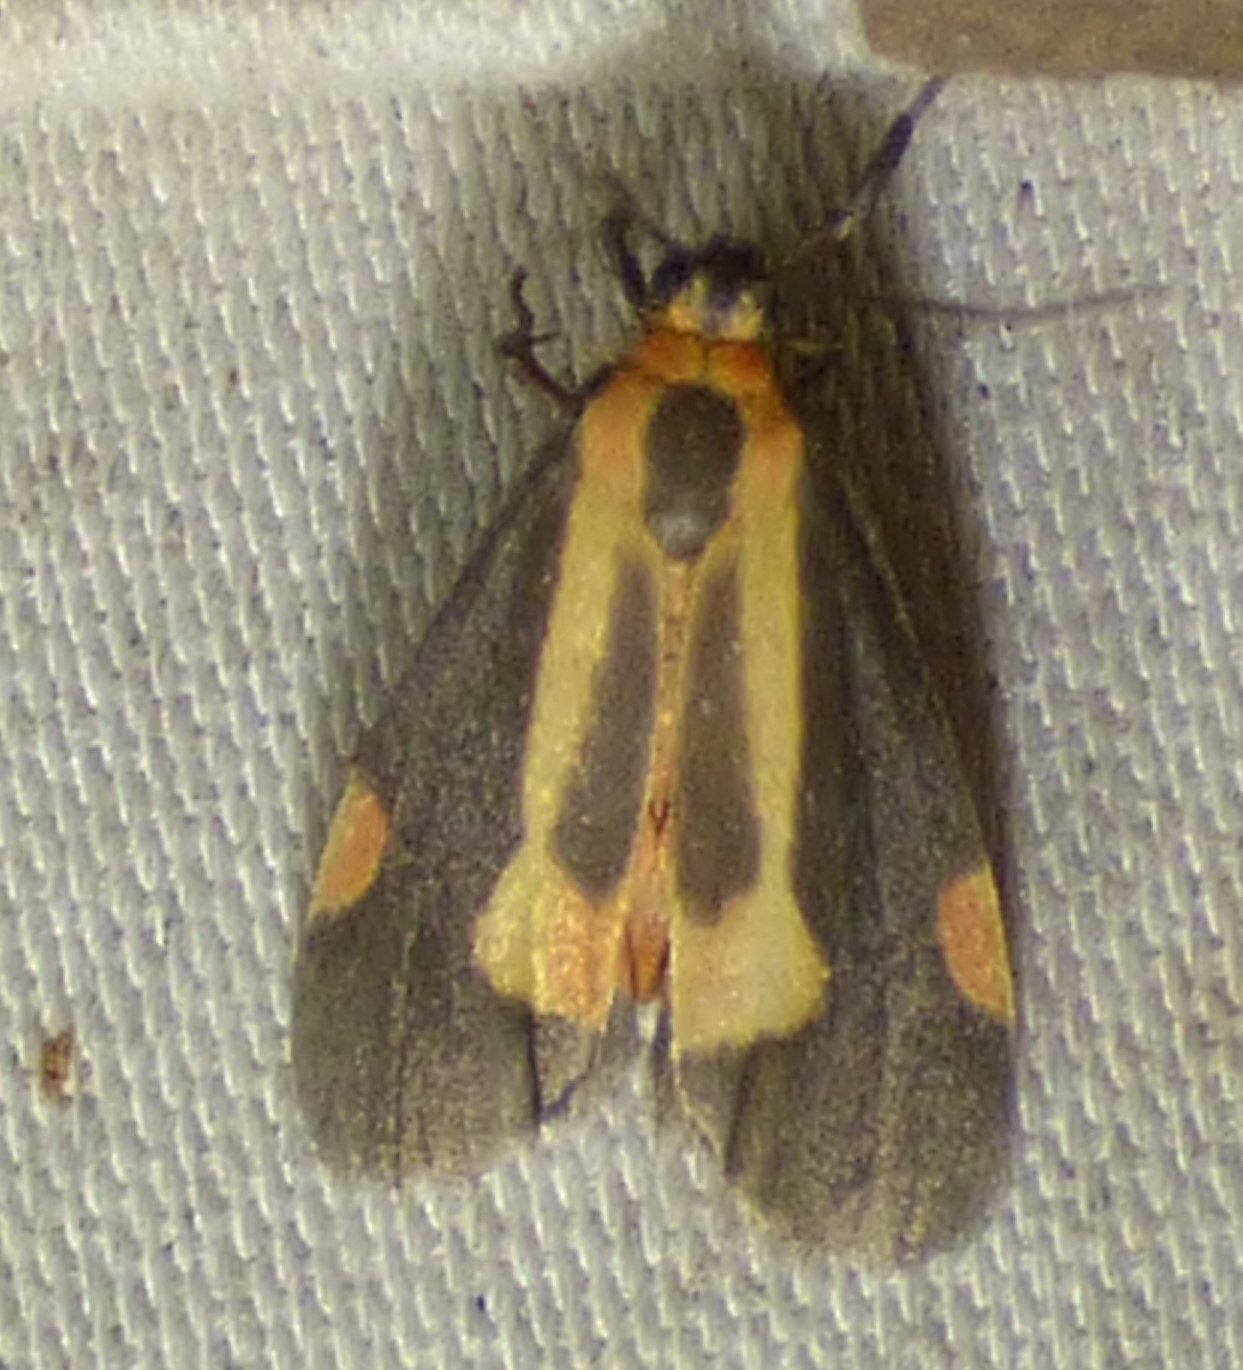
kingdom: Animalia
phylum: Arthropoda
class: Insecta
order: Lepidoptera
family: Erebidae
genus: Cisthene
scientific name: Cisthene packardii
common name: Packard's lichen moth
